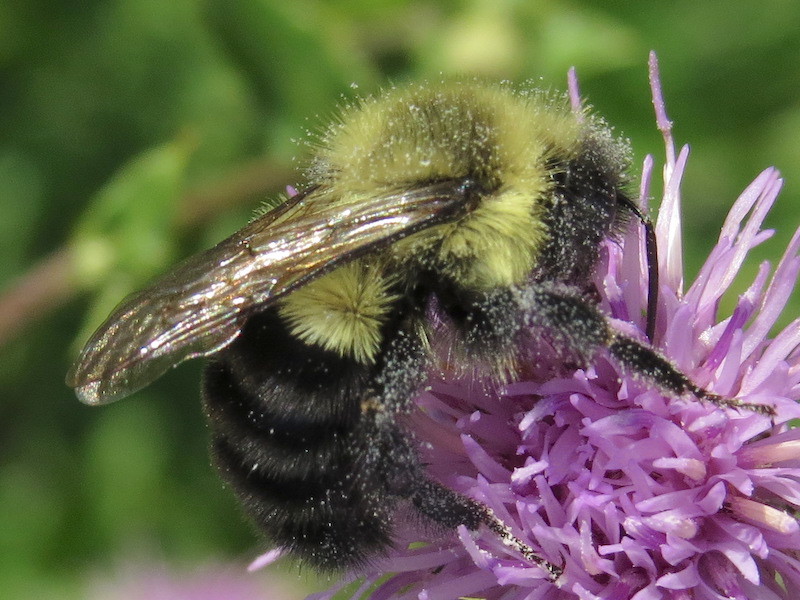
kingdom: Animalia
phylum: Arthropoda
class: Insecta
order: Hymenoptera
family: Apidae
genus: Bombus
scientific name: Bombus impatiens
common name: Common eastern bumble bee
